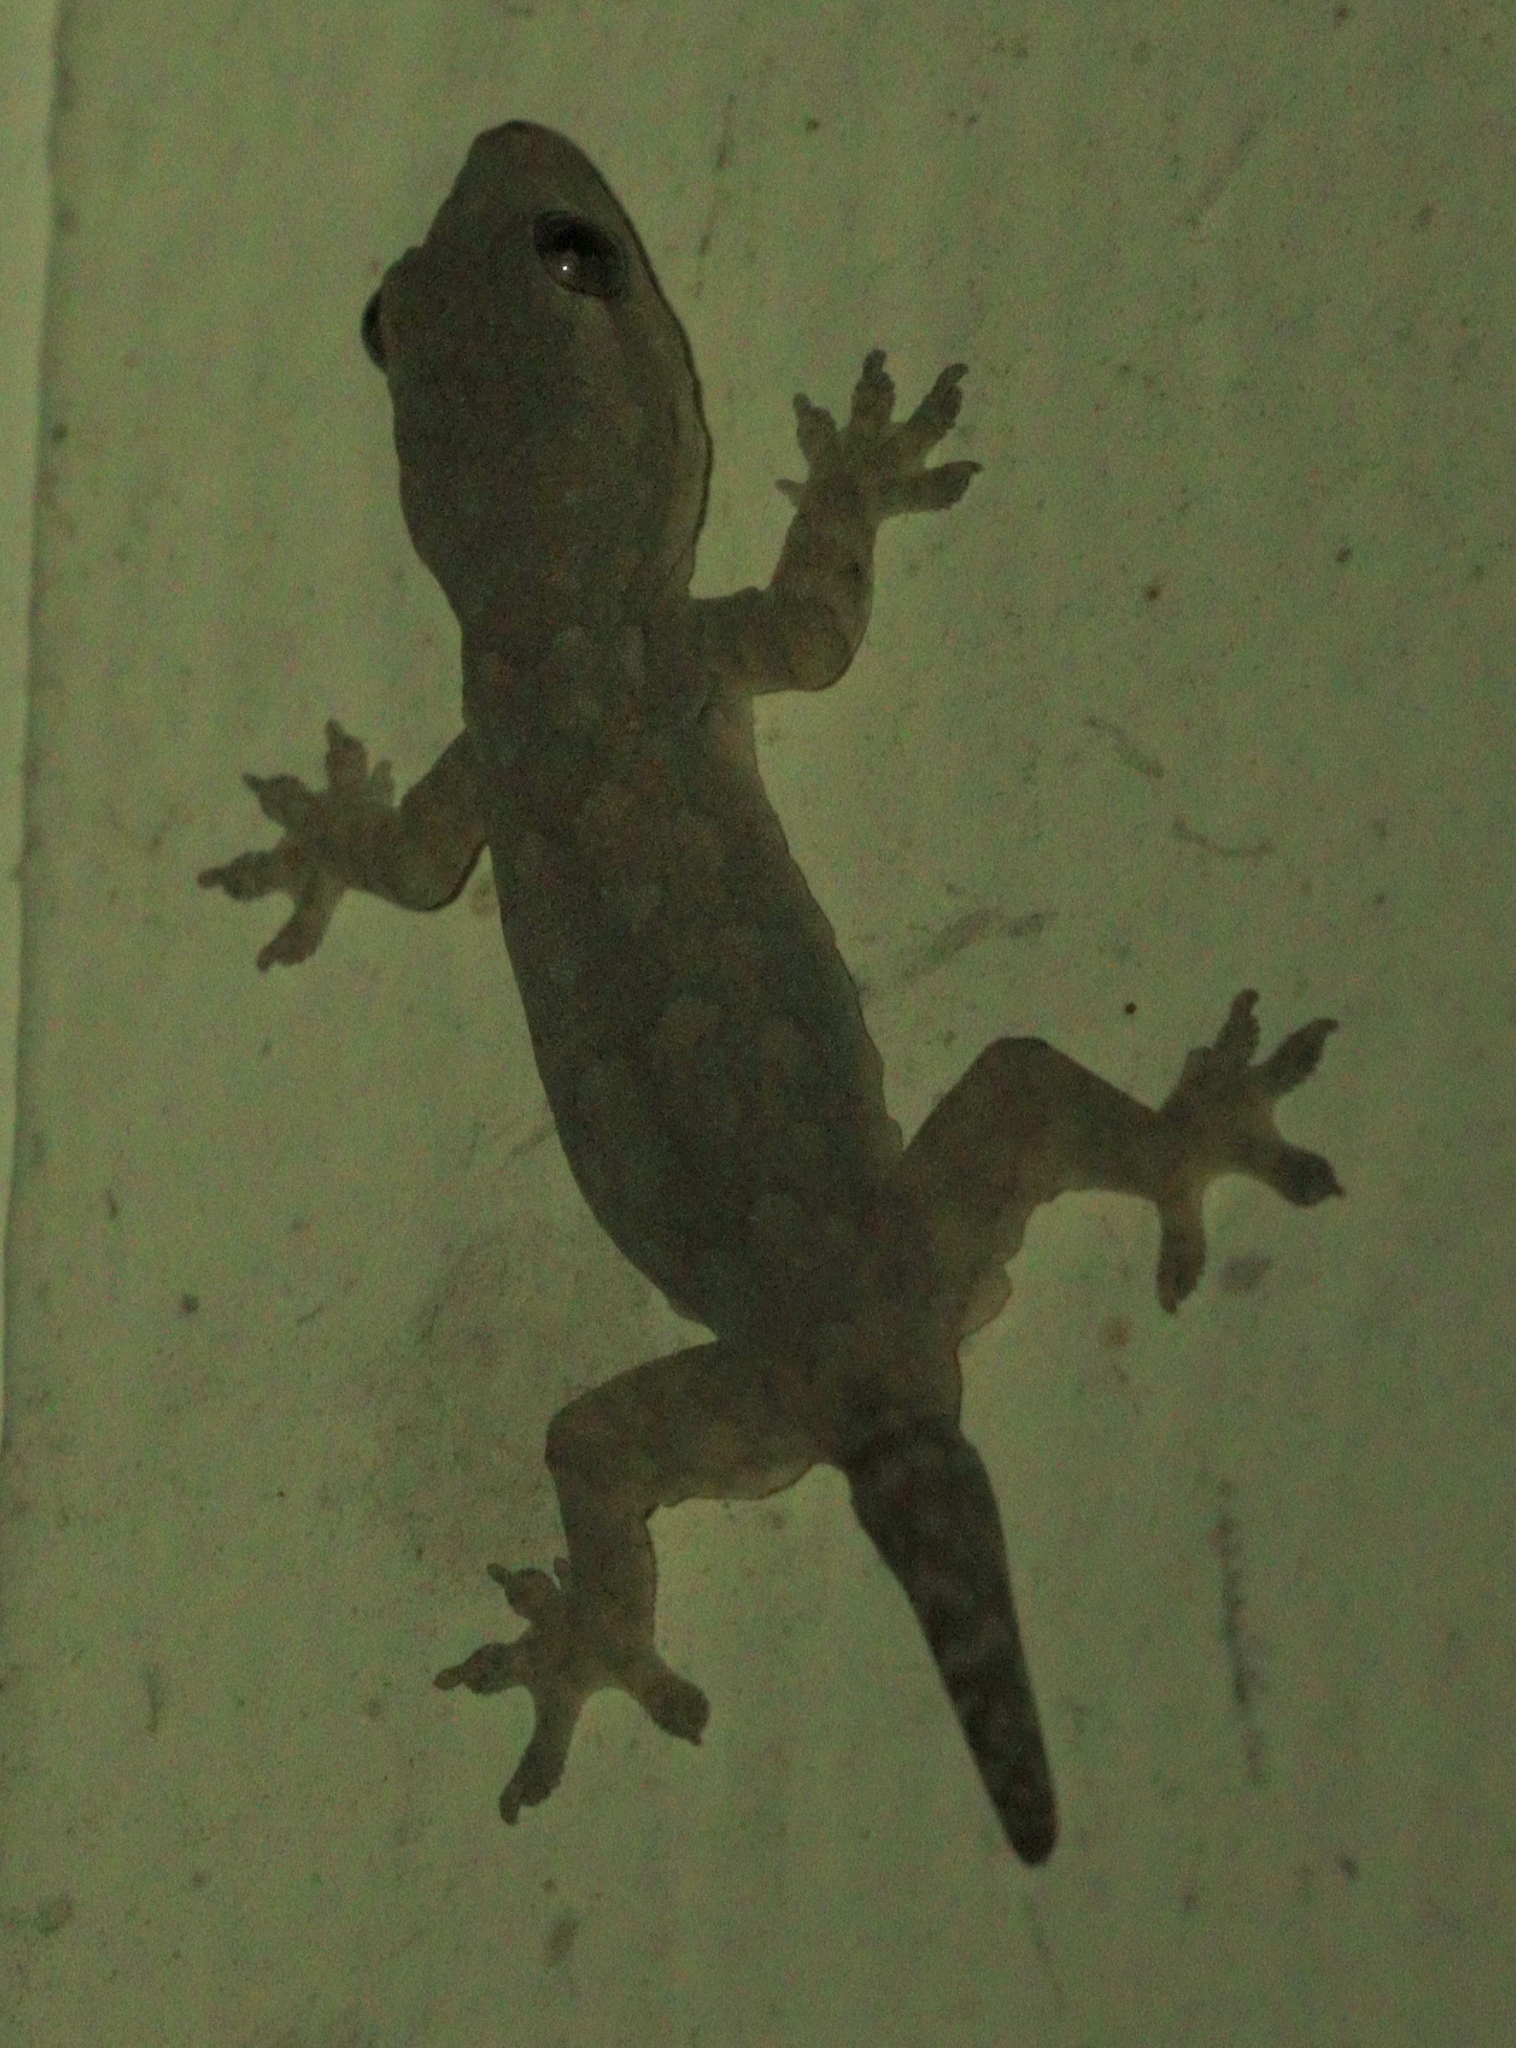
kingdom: Animalia
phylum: Chordata
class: Squamata
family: Gekkonidae
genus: Hemidactylus
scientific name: Hemidactylus platyurus
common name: Flat-tailed house gecko
